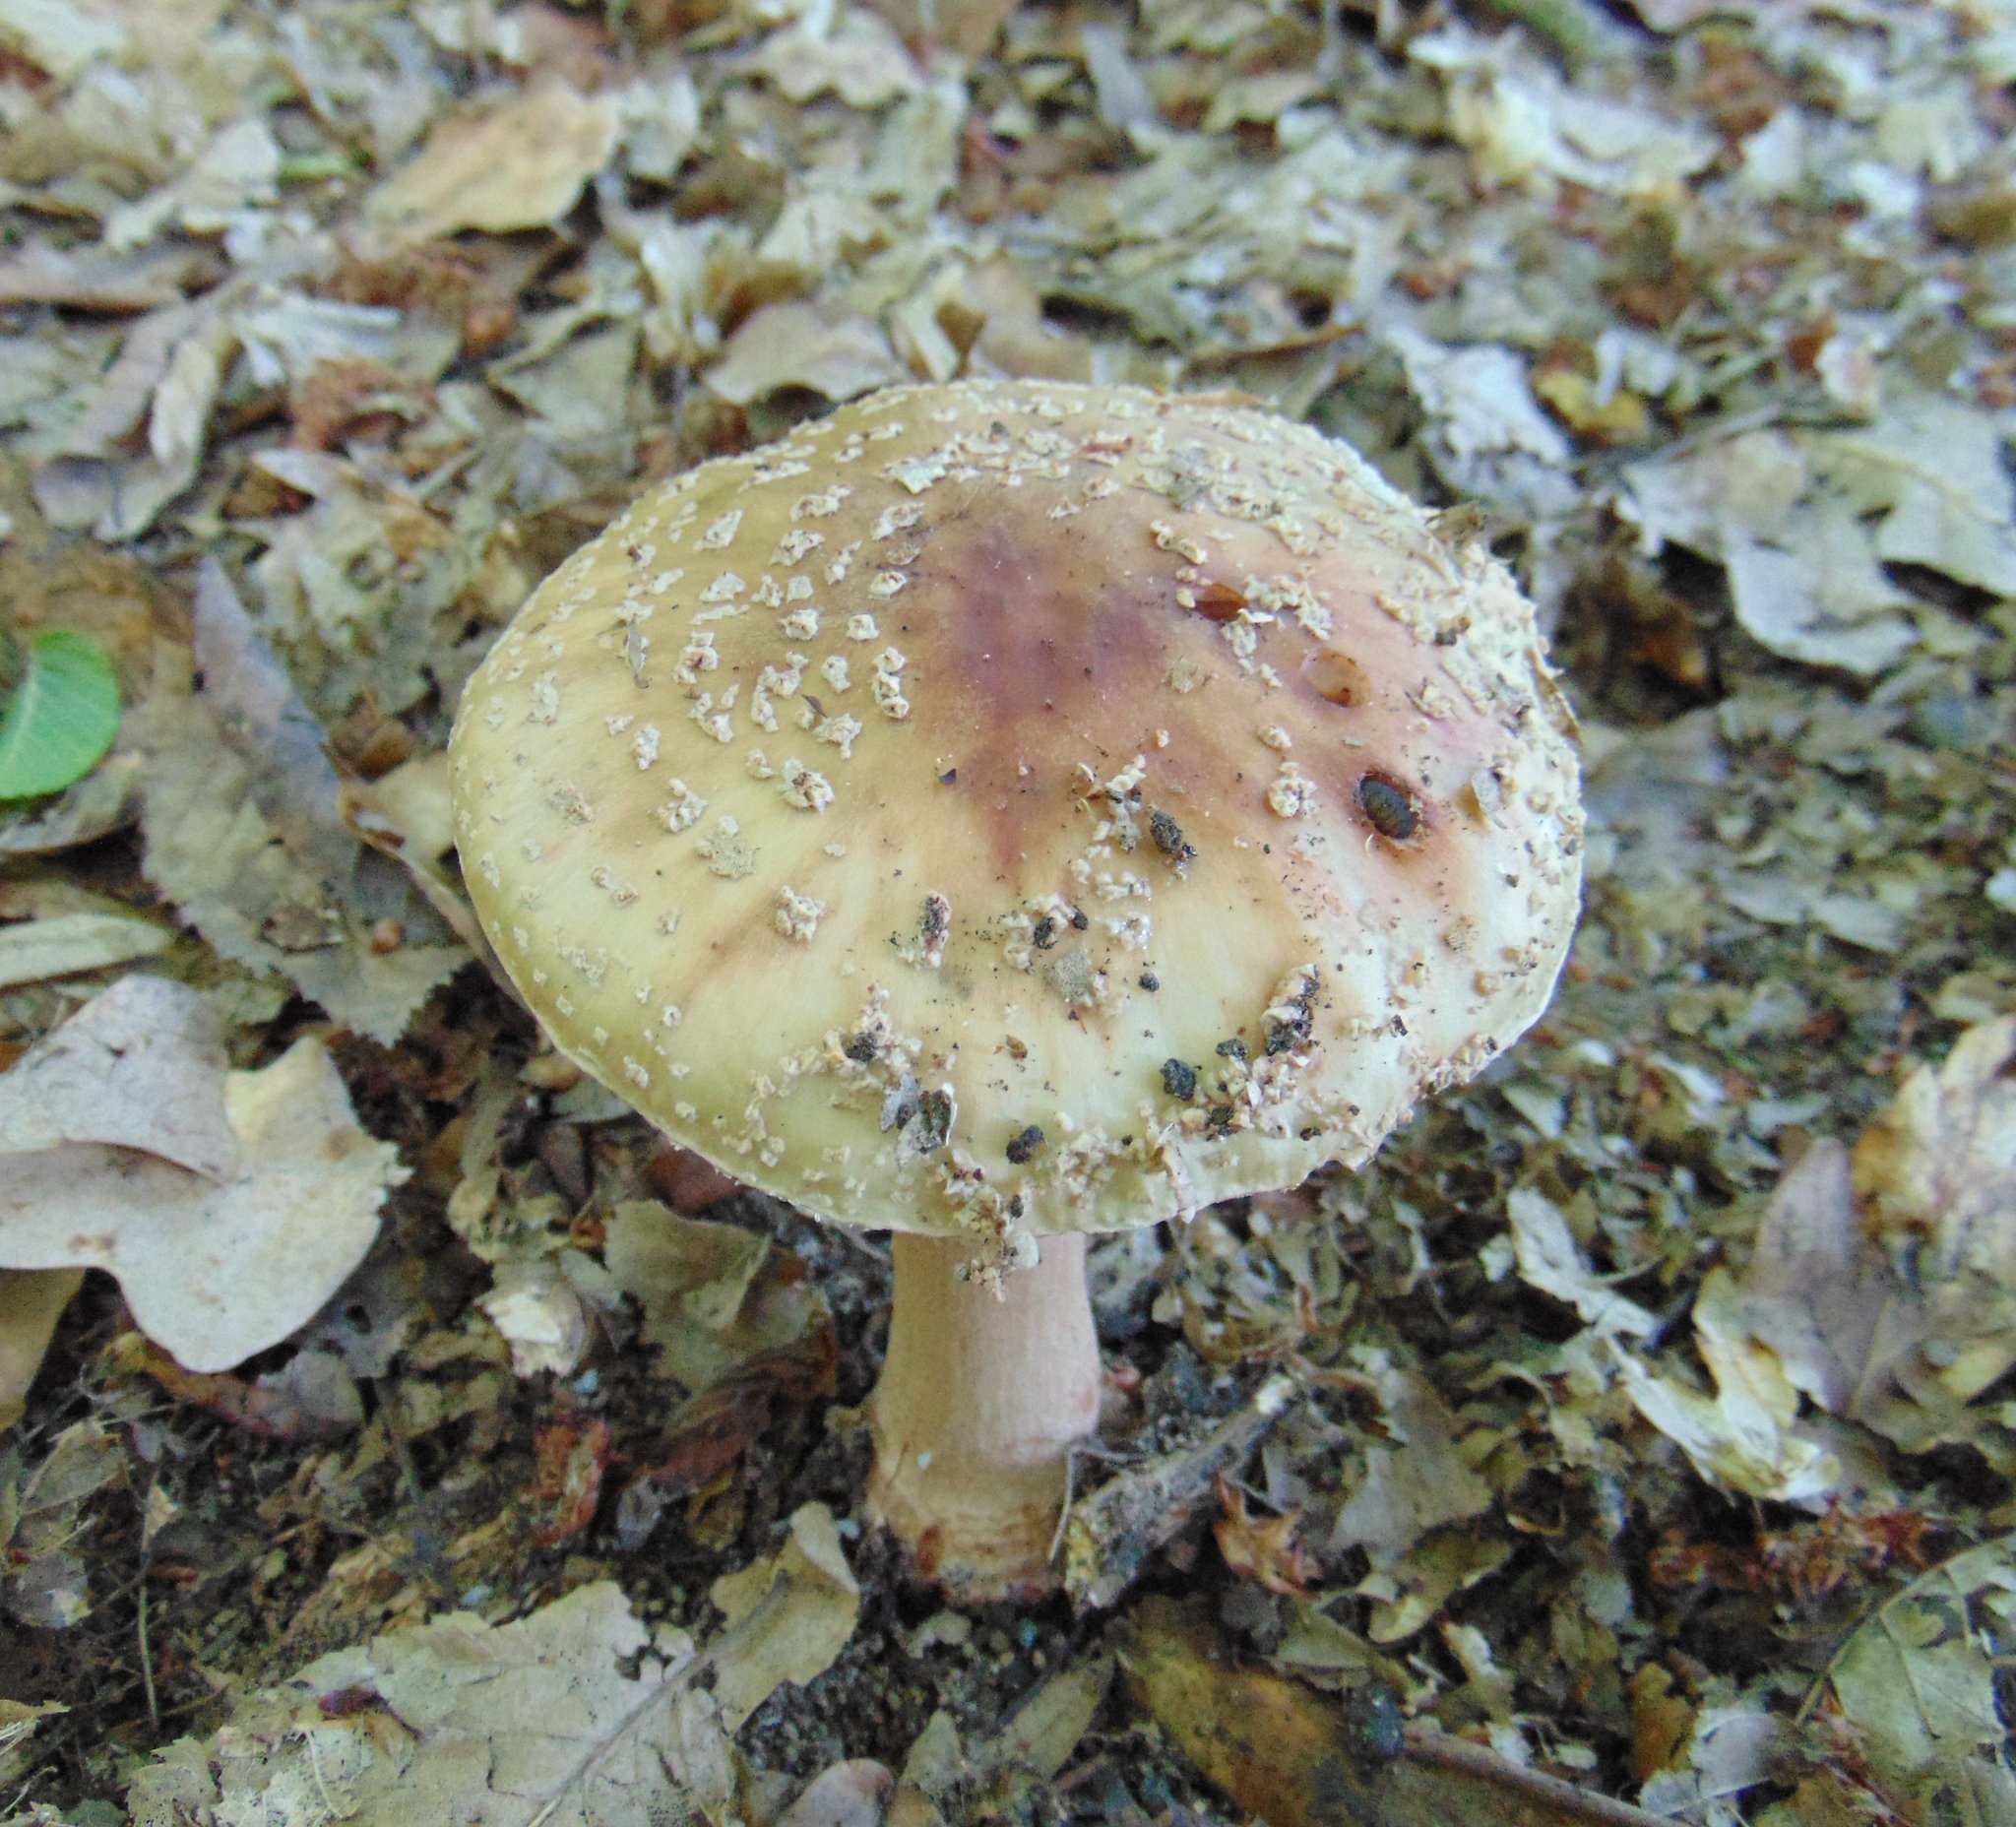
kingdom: Fungi
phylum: Basidiomycota
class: Agaricomycetes
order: Agaricales
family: Amanitaceae
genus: Amanita
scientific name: Amanita rubescens
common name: Blusher
